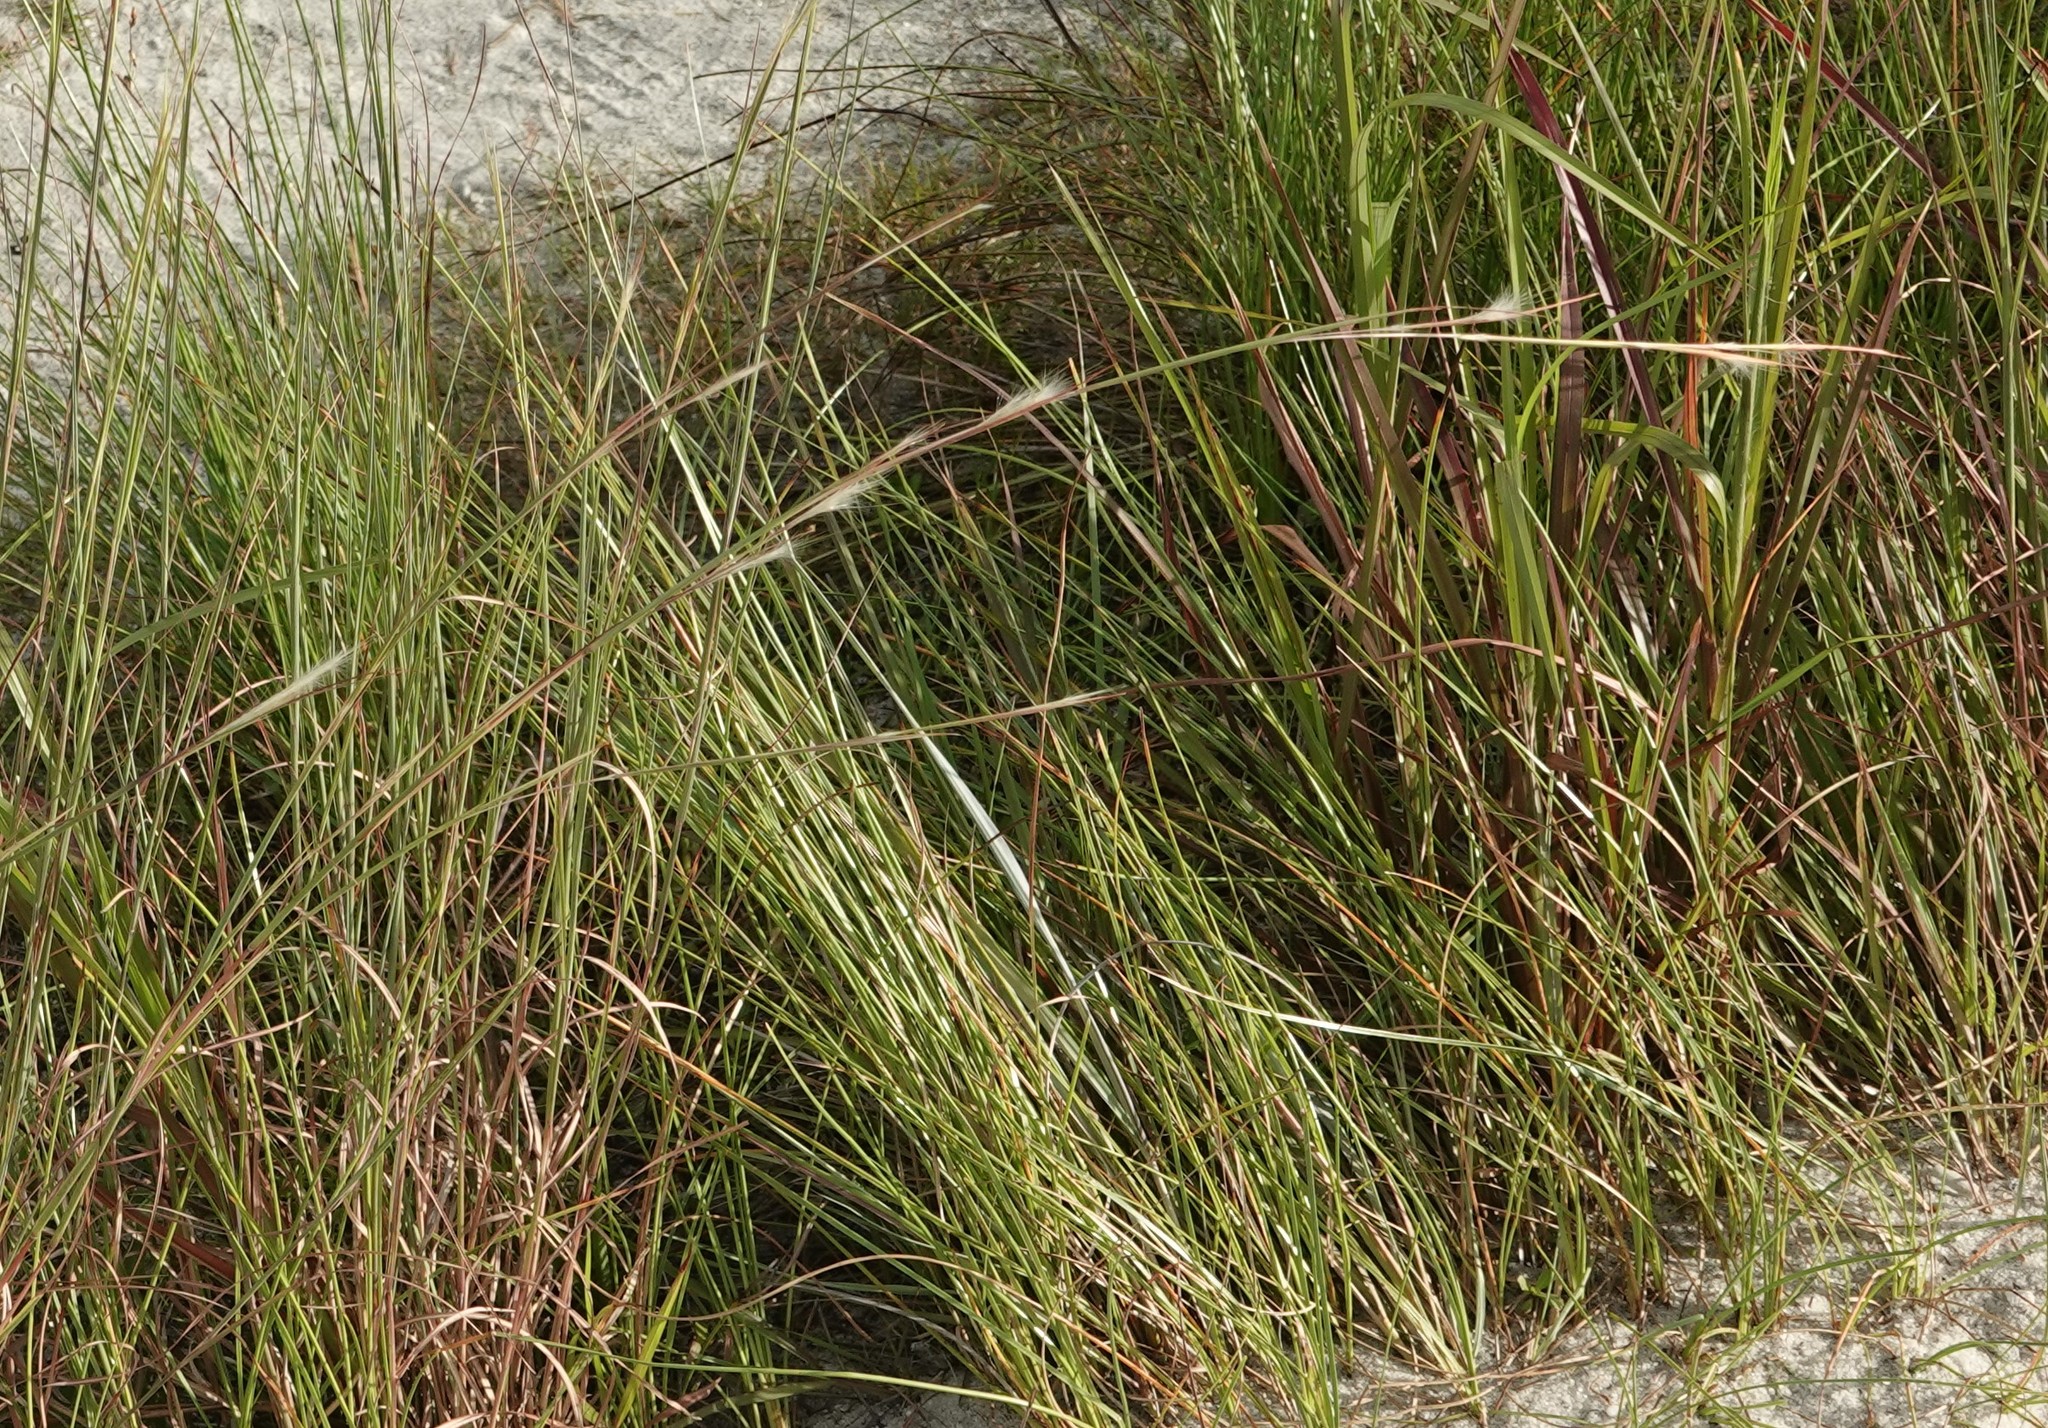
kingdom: Plantae
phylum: Tracheophyta
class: Liliopsida
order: Poales
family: Poaceae
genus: Andropogon
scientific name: Andropogon longiberbis
